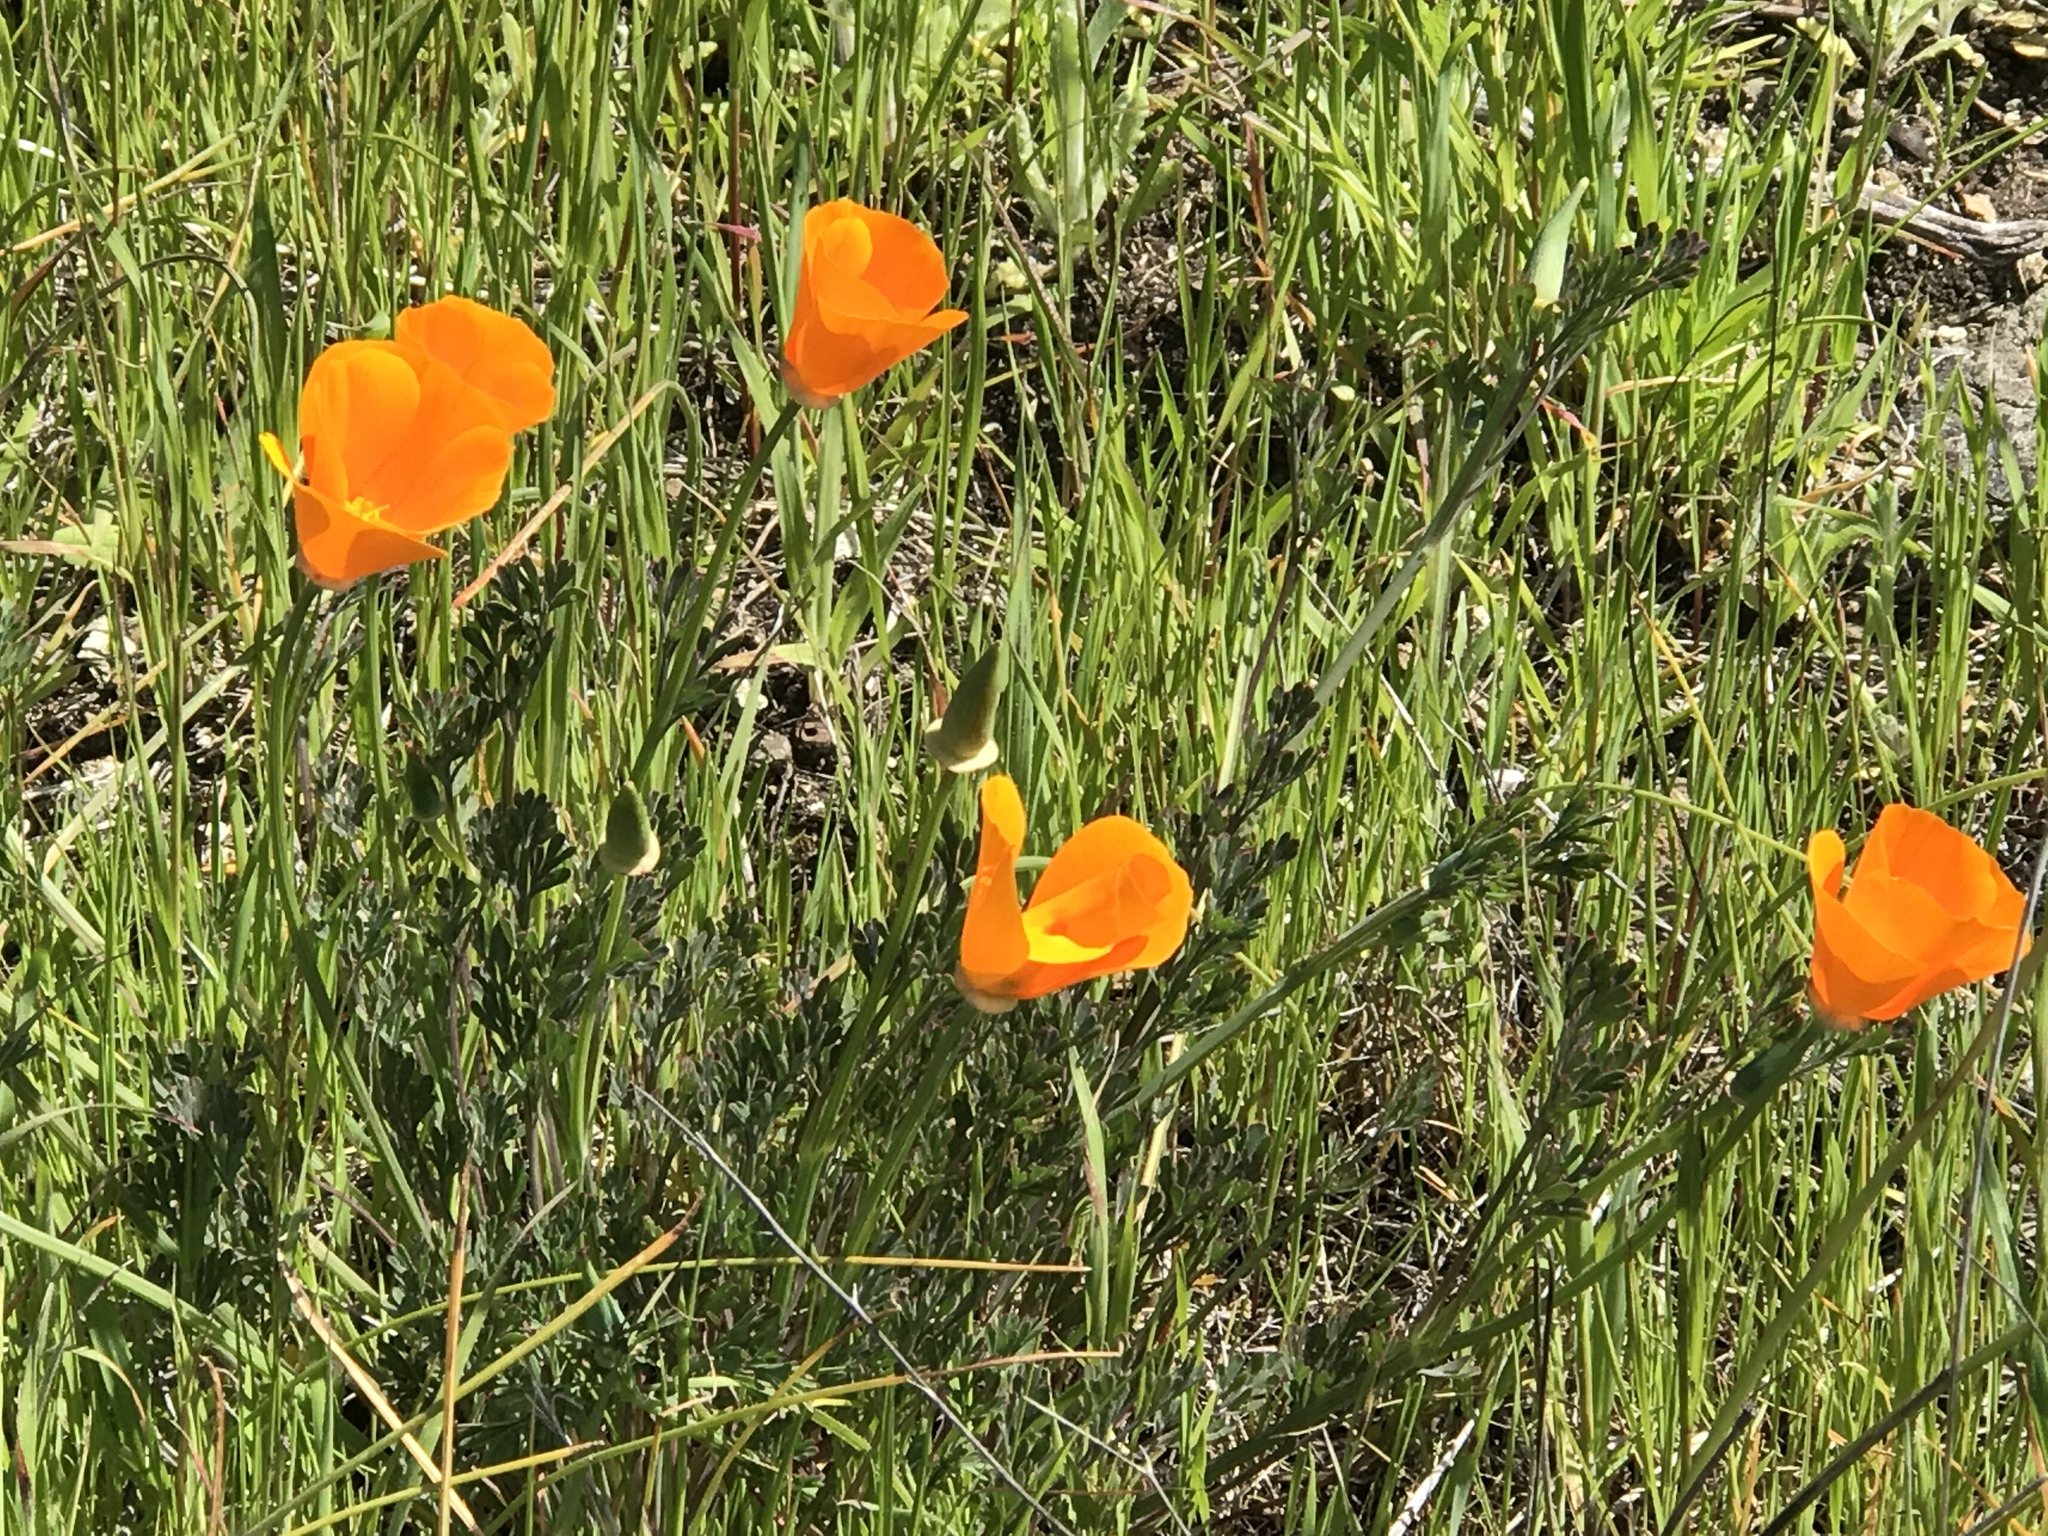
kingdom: Plantae
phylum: Tracheophyta
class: Magnoliopsida
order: Ranunculales
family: Papaveraceae
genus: Eschscholzia
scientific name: Eschscholzia californica
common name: California poppy
